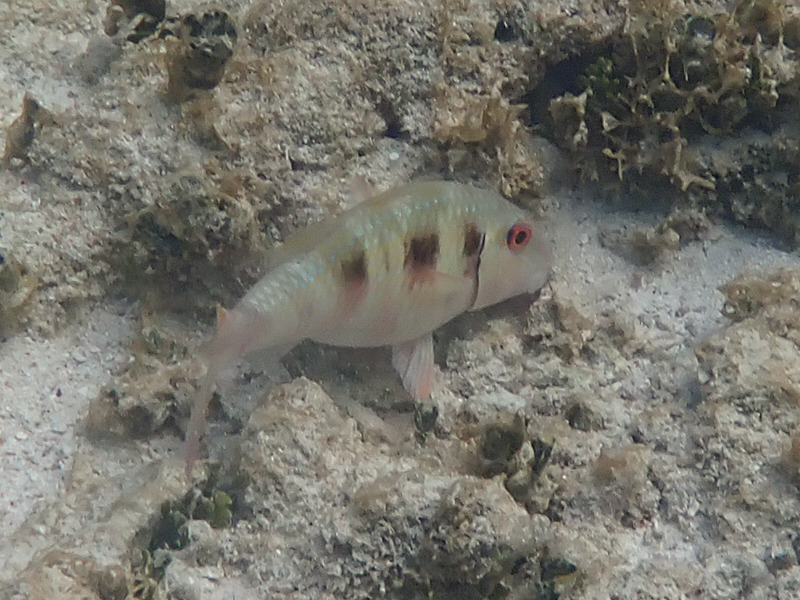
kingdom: Animalia
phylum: Chordata
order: Perciformes
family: Mullidae
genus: Pseudupeneus
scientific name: Pseudupeneus maculatus
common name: Spotted goatfish
